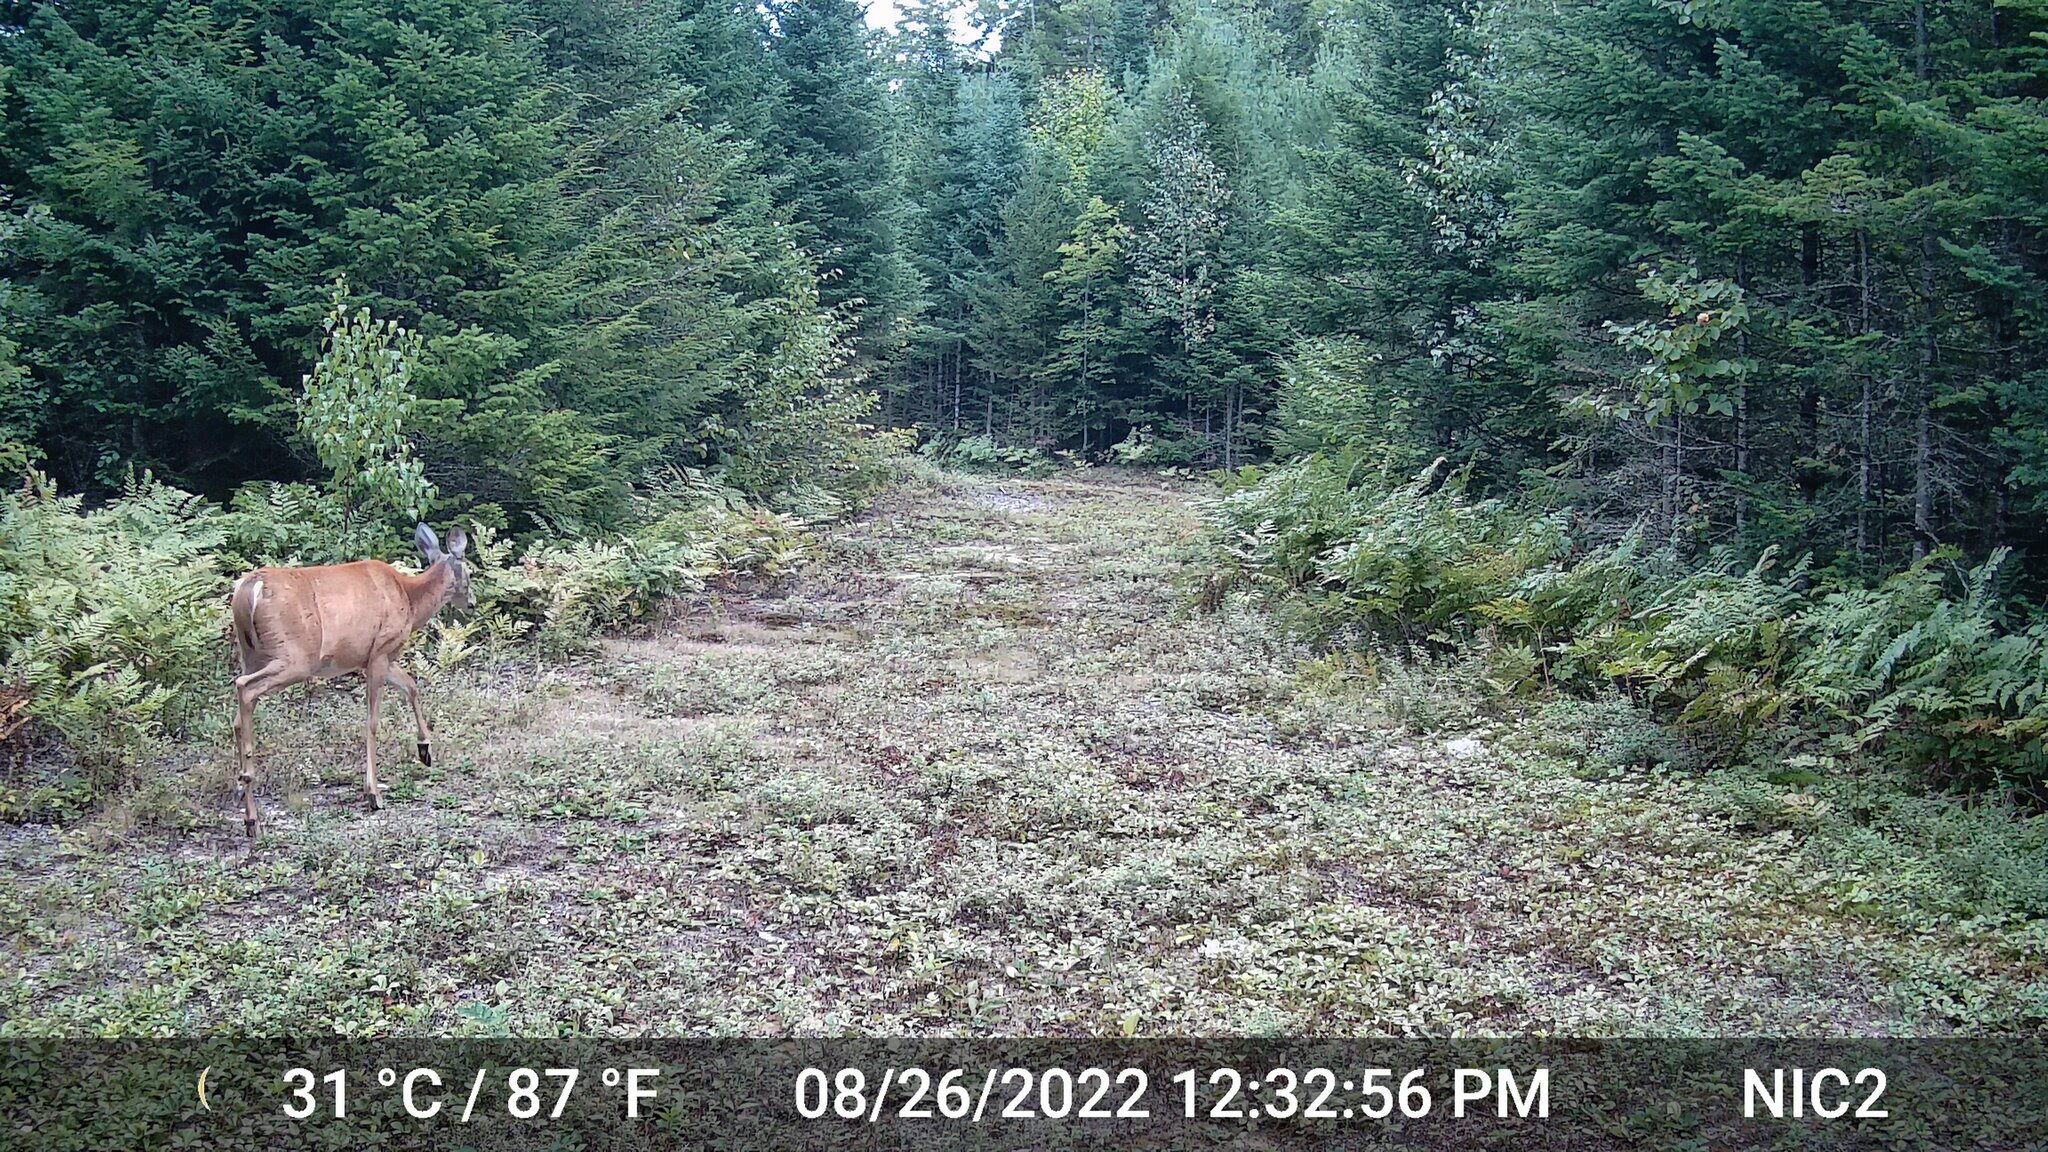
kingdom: Animalia
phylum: Chordata
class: Mammalia
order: Artiodactyla
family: Cervidae
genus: Odocoileus
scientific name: Odocoileus virginianus
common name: White-tailed deer
